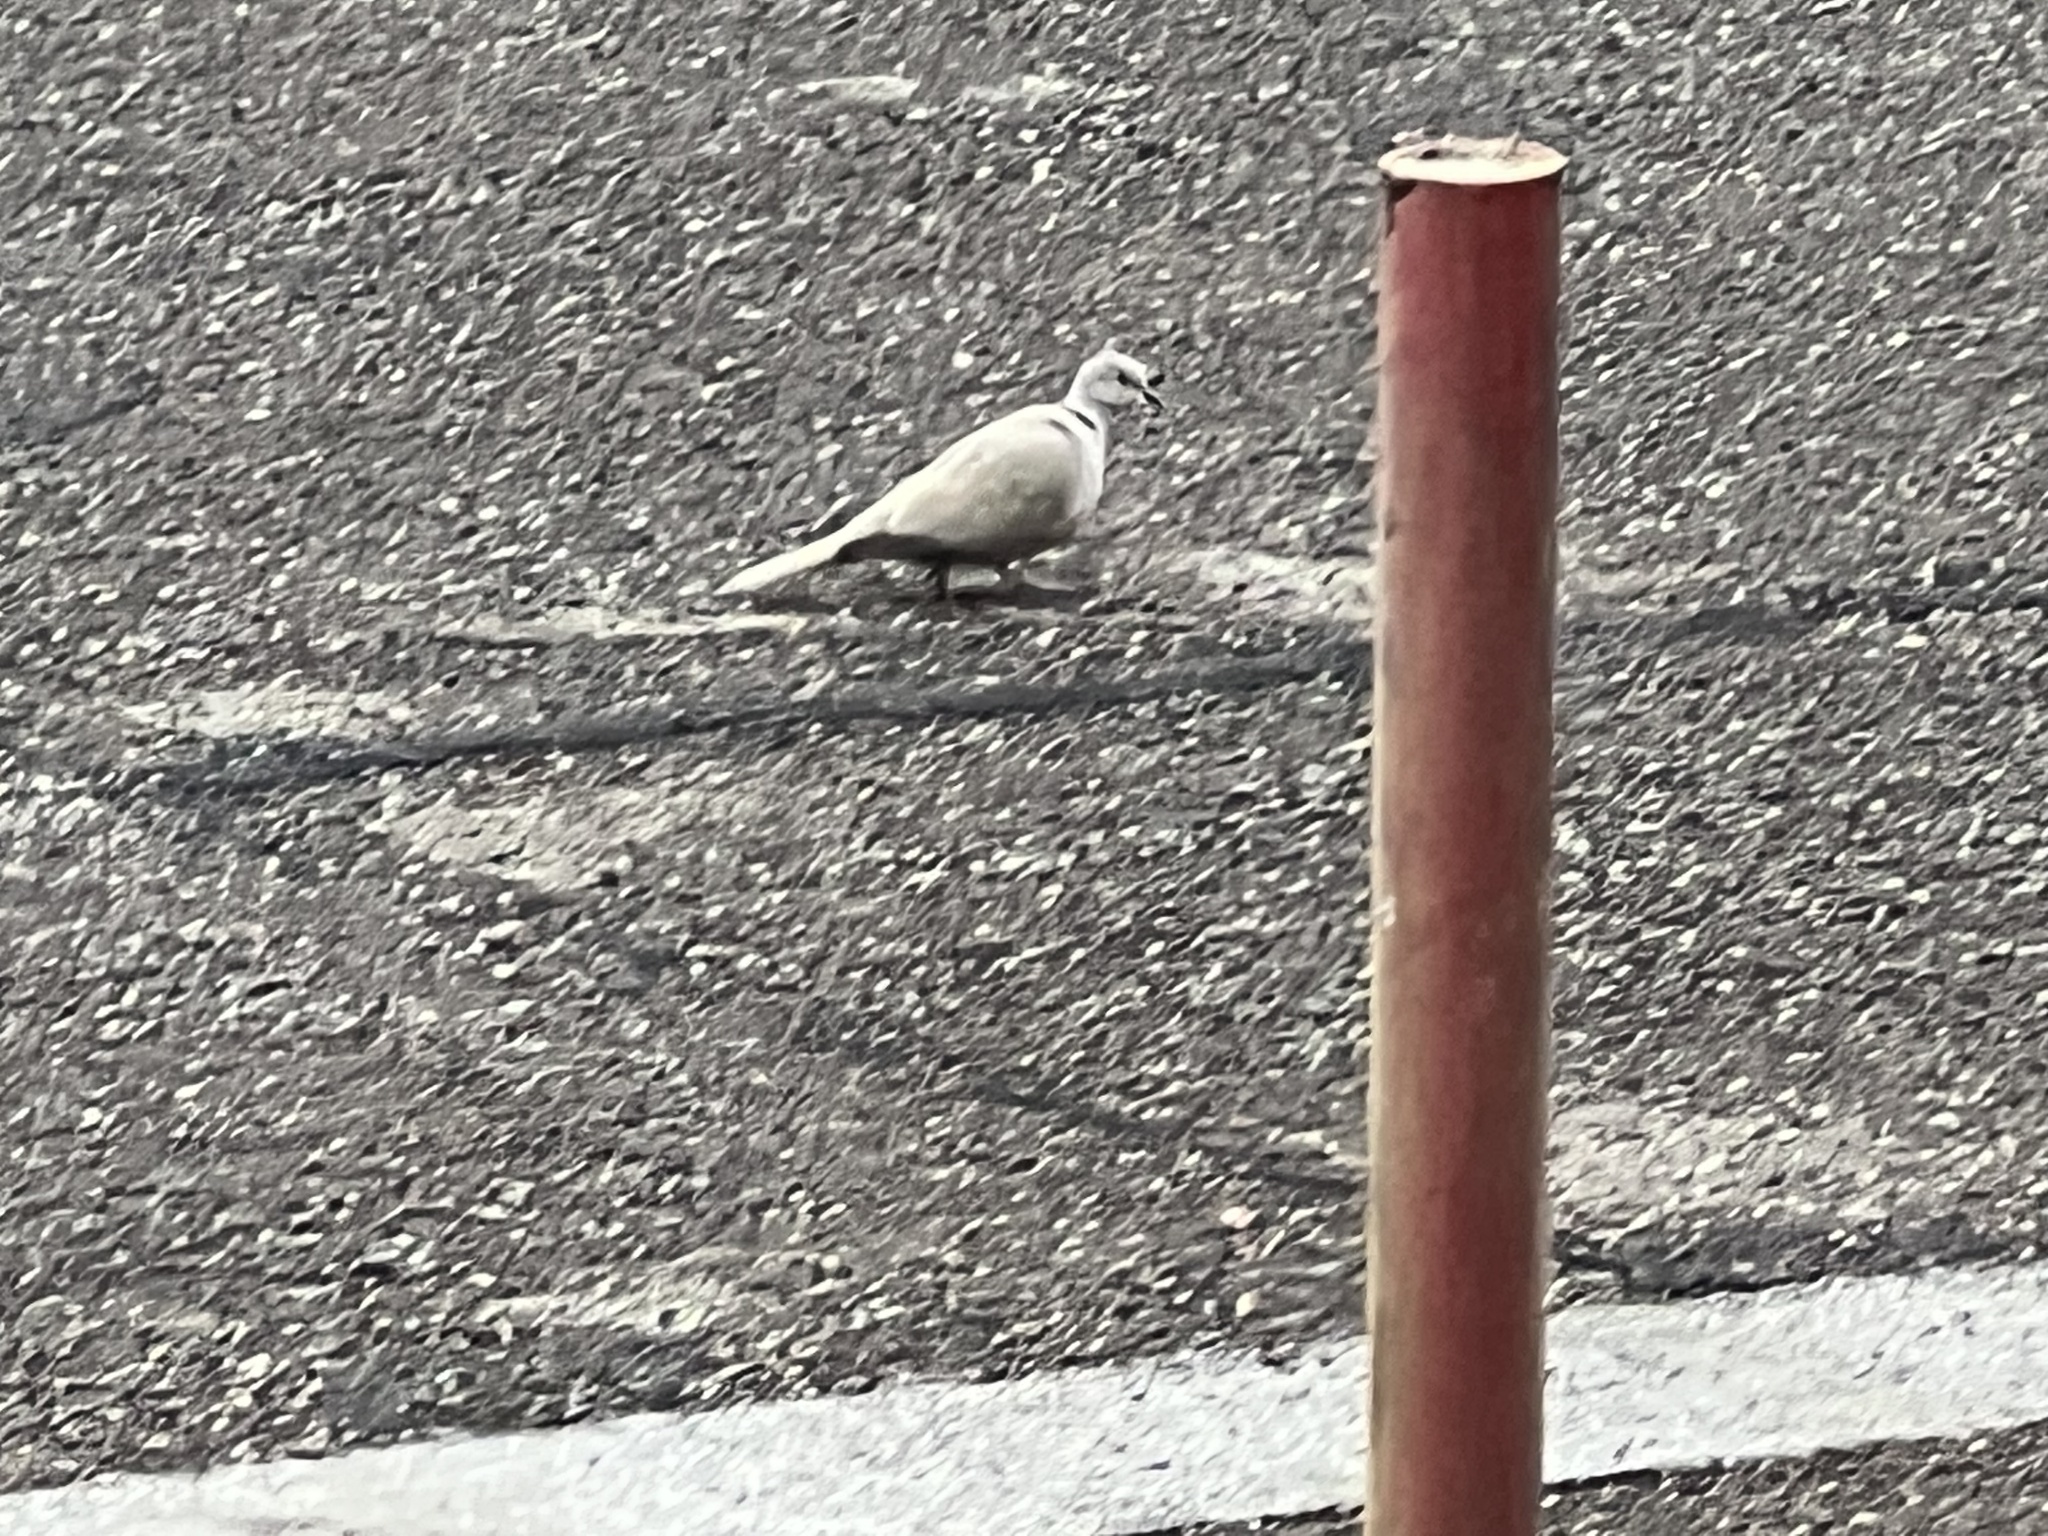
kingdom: Animalia
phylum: Chordata
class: Aves
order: Columbiformes
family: Columbidae
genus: Streptopelia
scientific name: Streptopelia decaocto
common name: Eurasian collared dove
